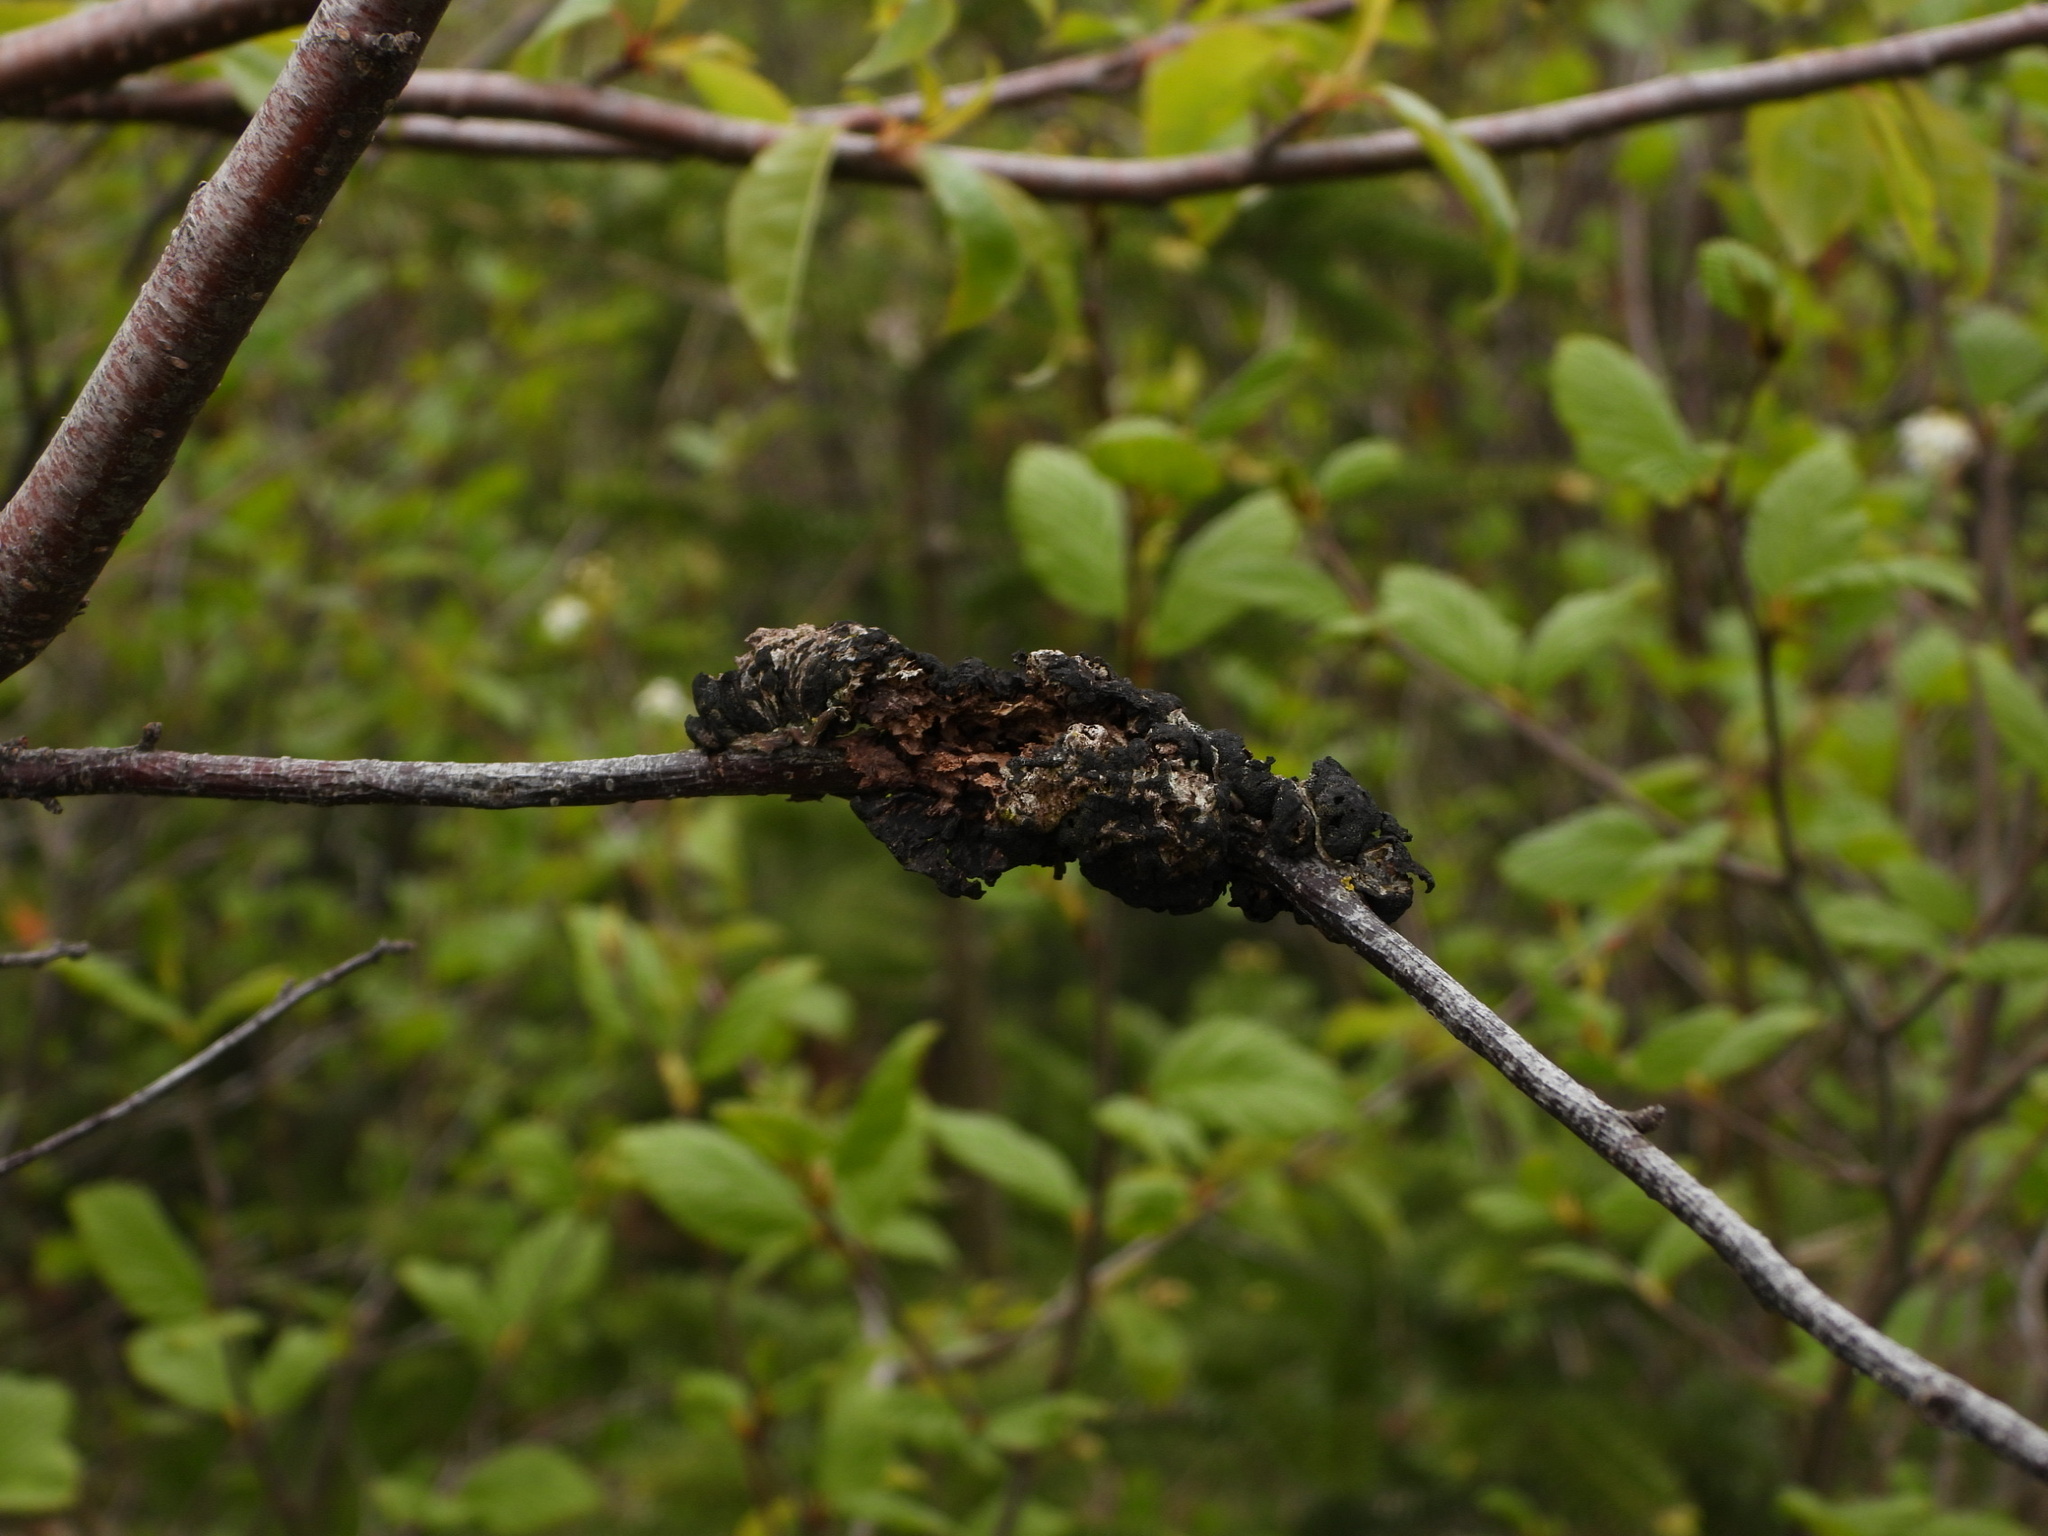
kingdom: Fungi
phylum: Ascomycota
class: Dothideomycetes
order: Venturiales
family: Venturiaceae
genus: Apiosporina
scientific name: Apiosporina morbosa
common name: Black knot
